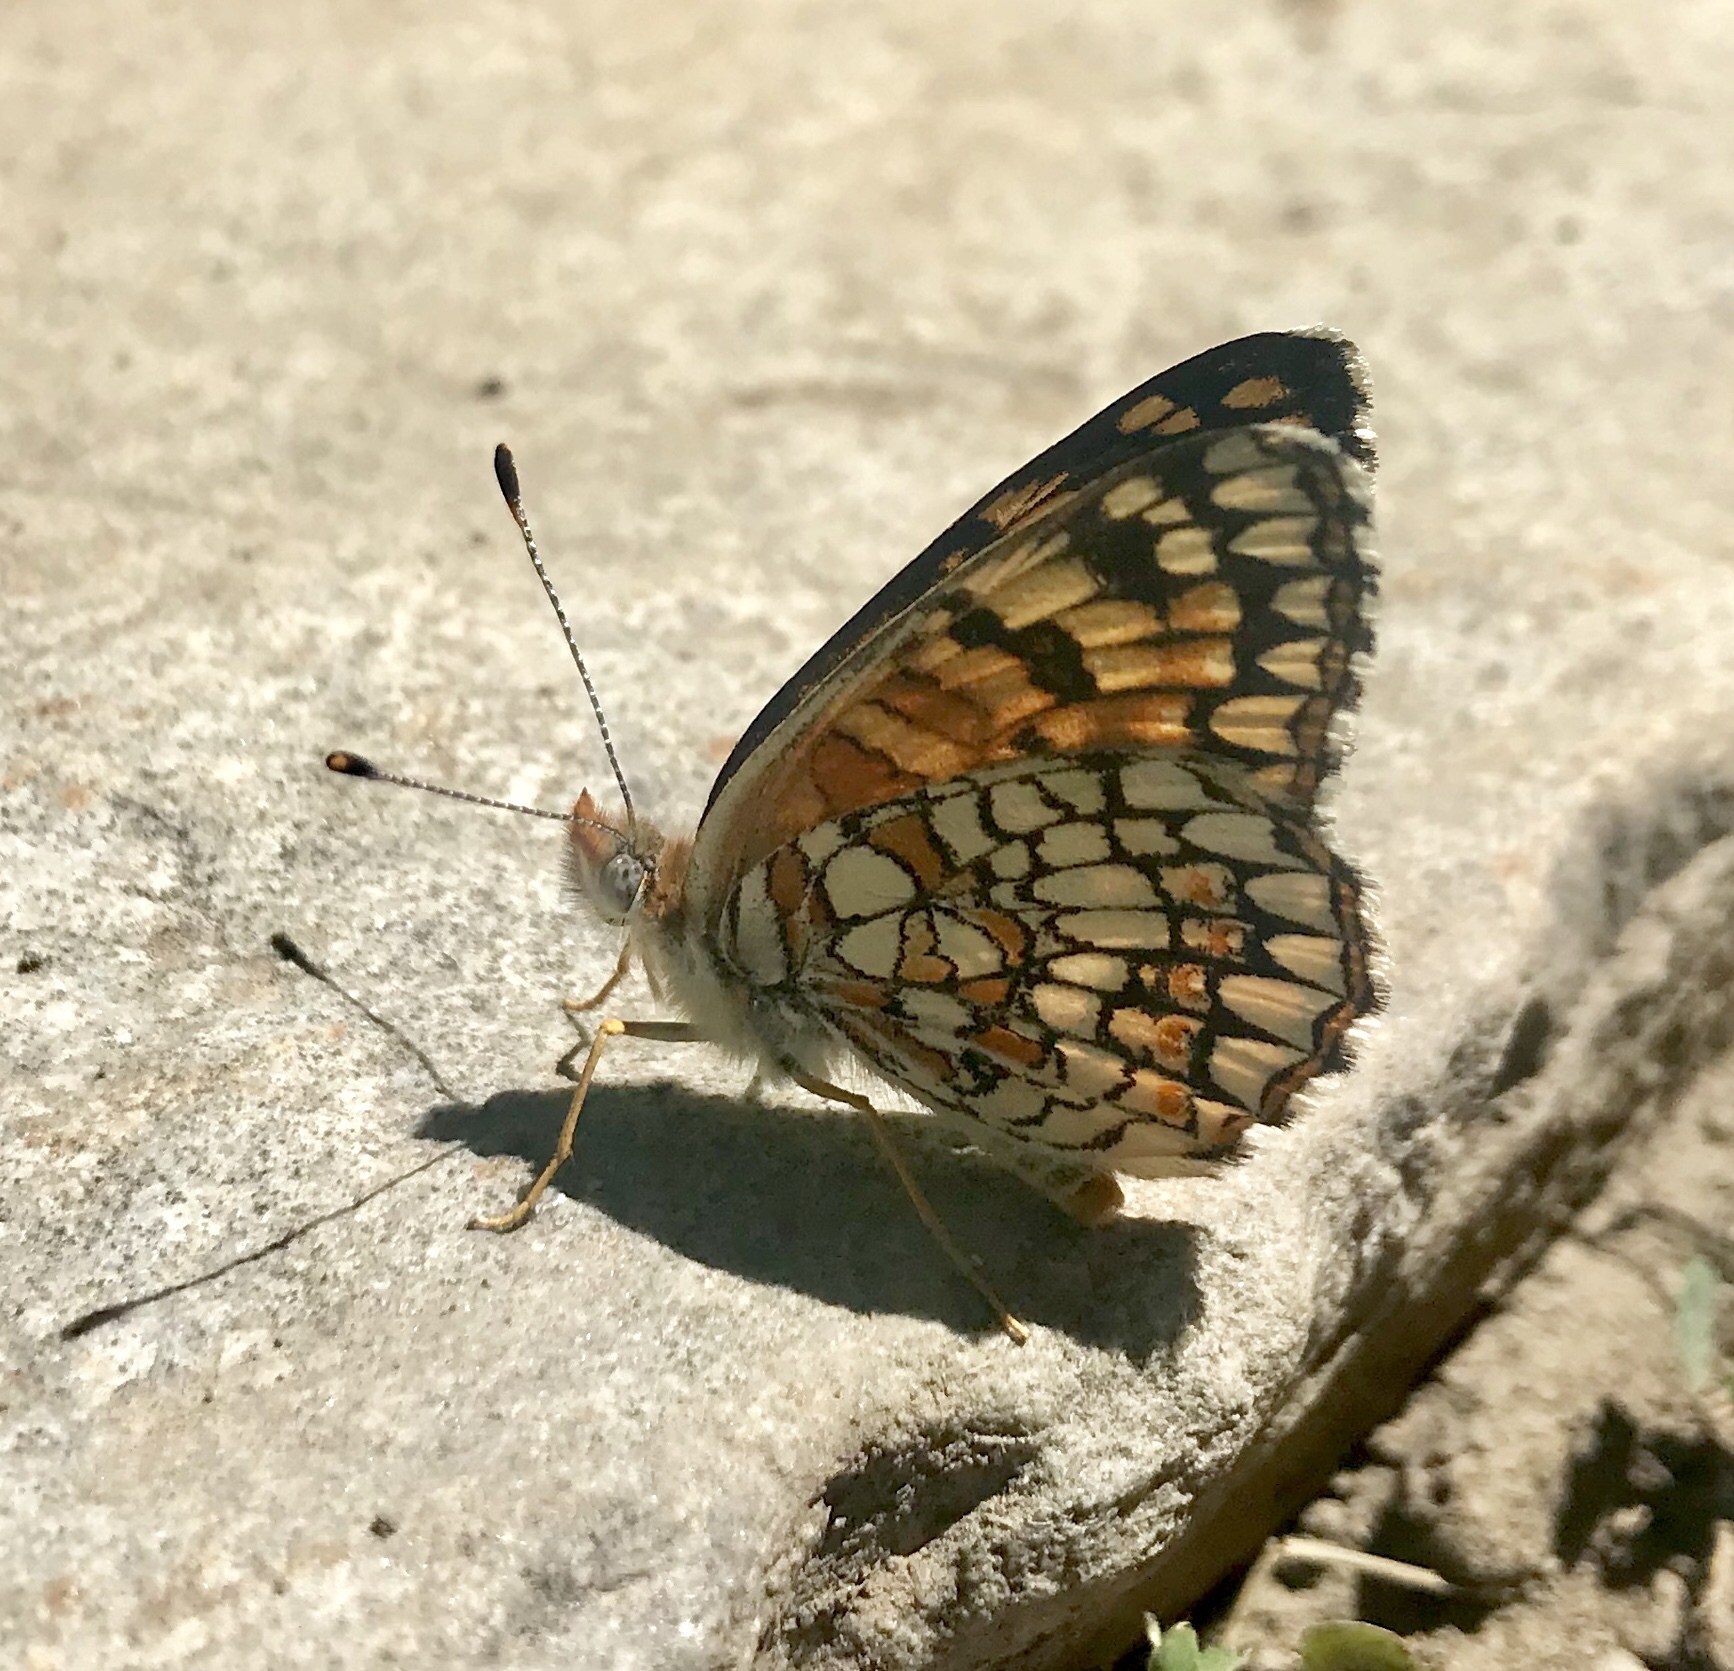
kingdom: Animalia
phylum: Arthropoda
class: Insecta
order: Lepidoptera
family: Nymphalidae
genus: Chlosyne
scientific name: Chlosyne acastus
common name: Sagebrush checkerspot
